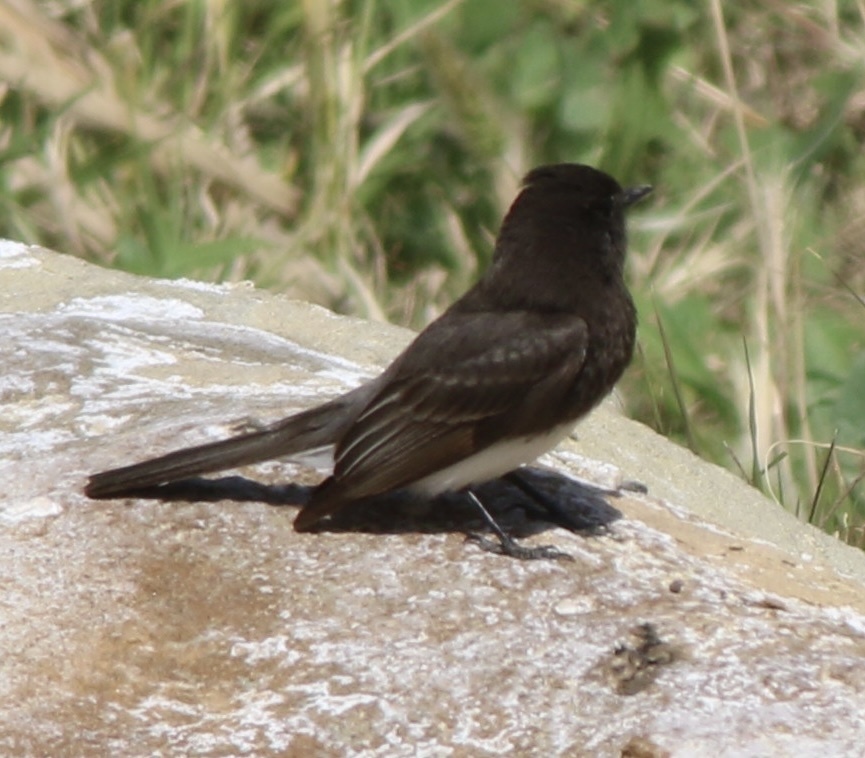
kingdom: Animalia
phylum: Chordata
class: Aves
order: Passeriformes
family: Tyrannidae
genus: Sayornis
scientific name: Sayornis nigricans
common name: Black phoebe
